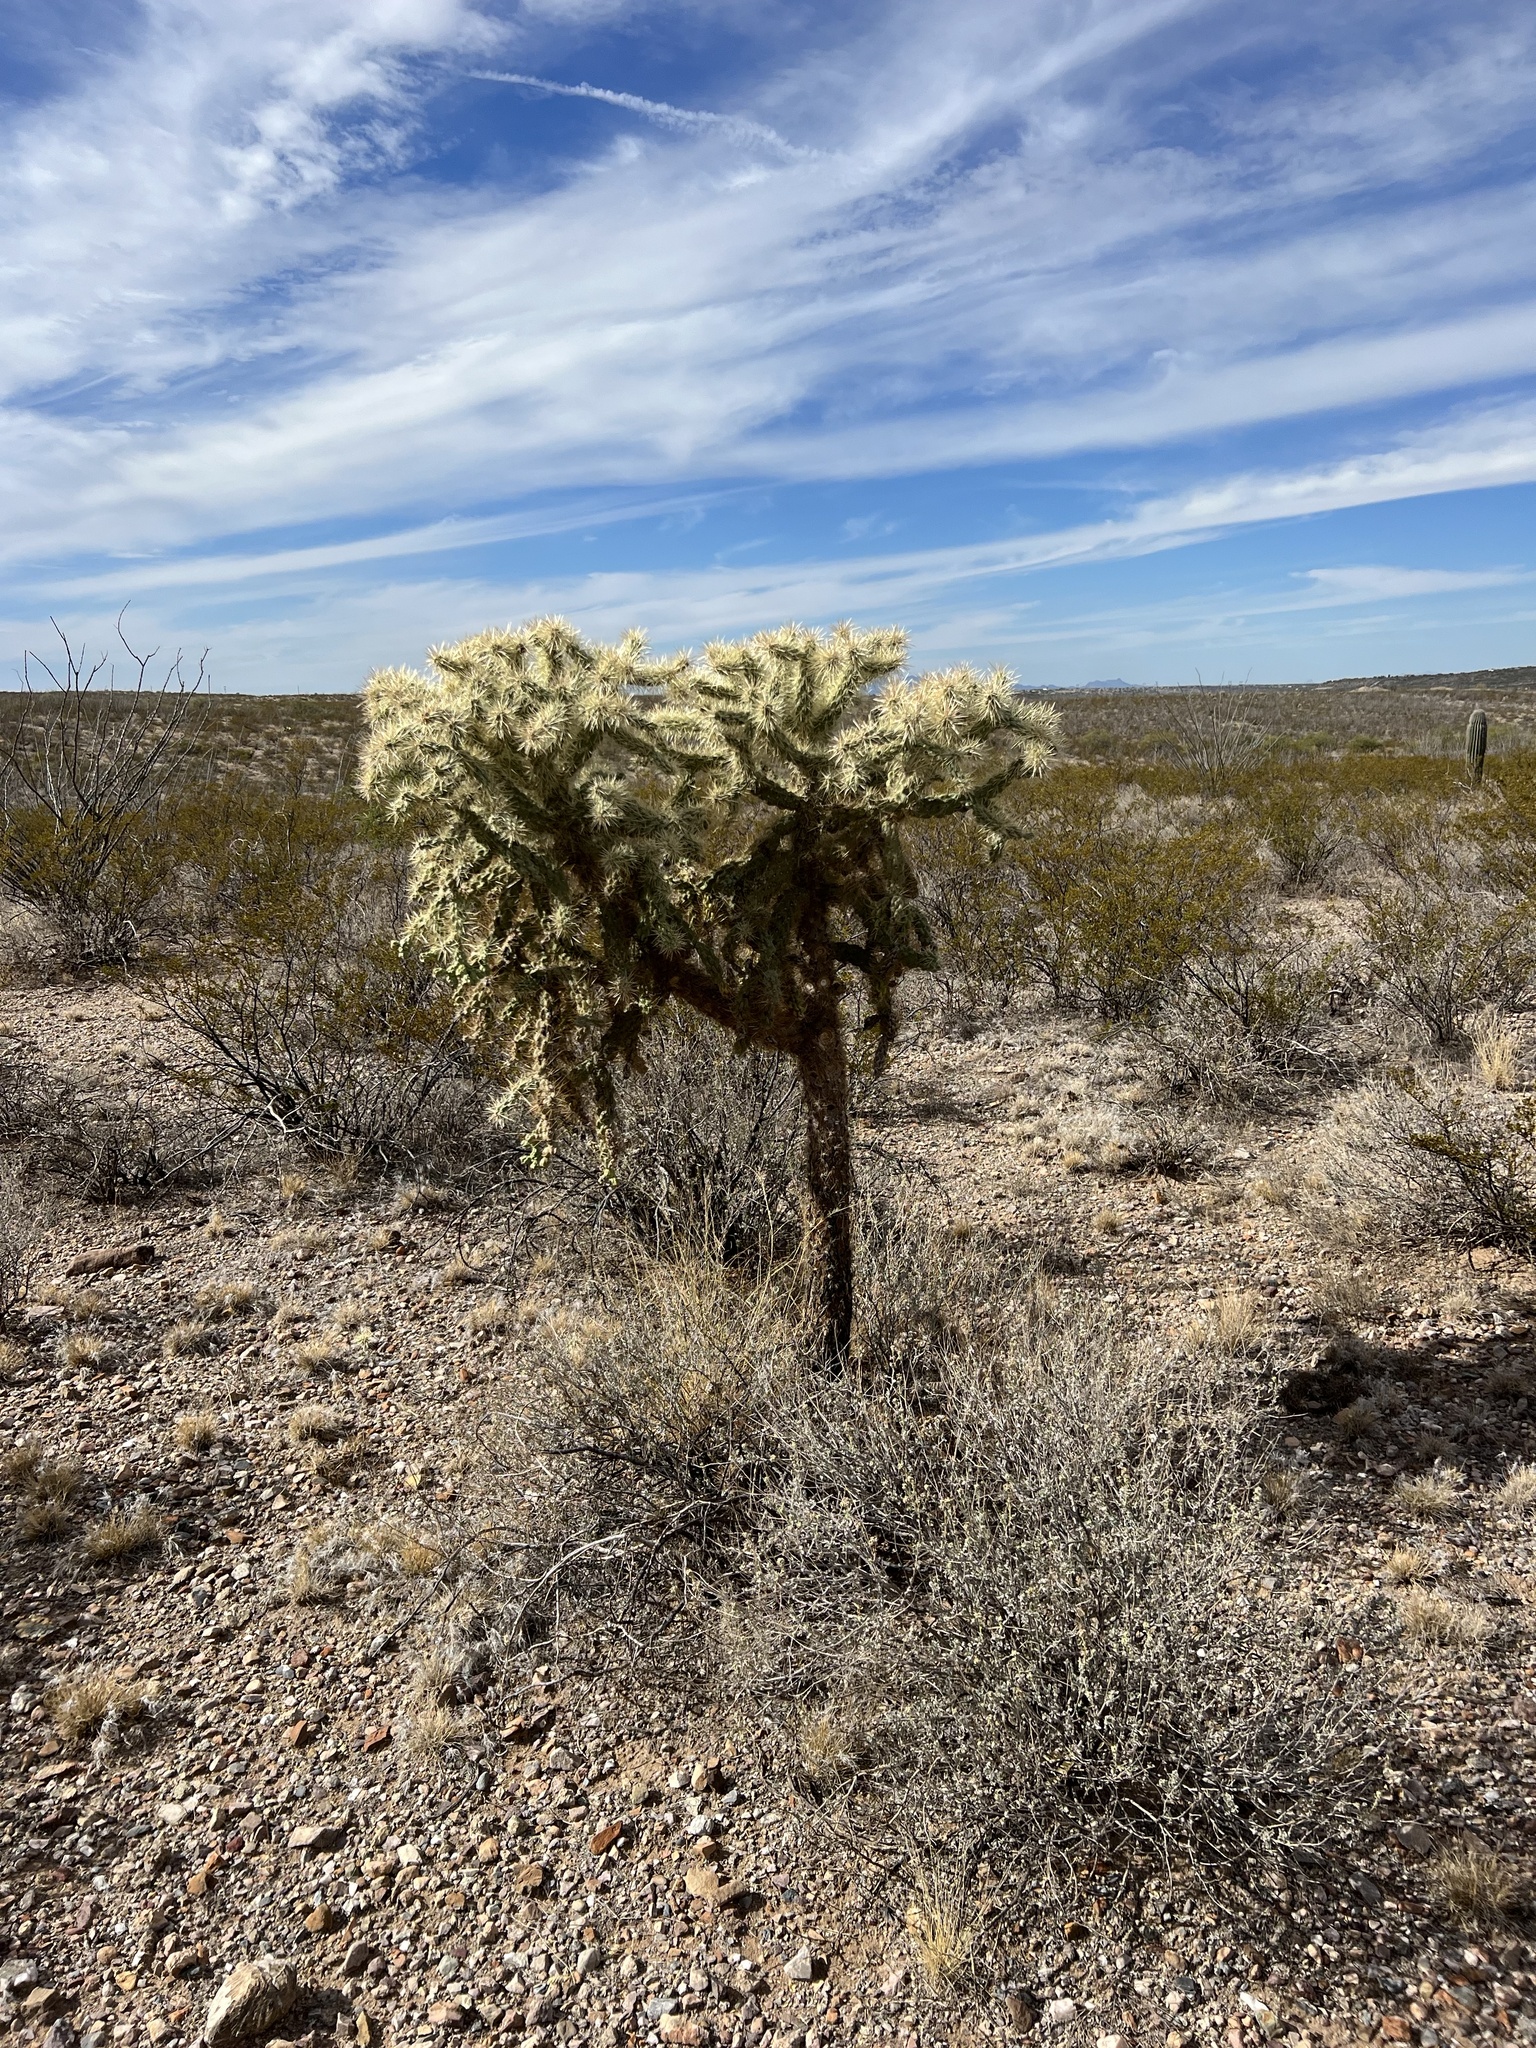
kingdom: Plantae
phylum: Tracheophyta
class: Magnoliopsida
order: Caryophyllales
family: Cactaceae
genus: Cylindropuntia
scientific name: Cylindropuntia fulgida
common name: Jumping cholla
